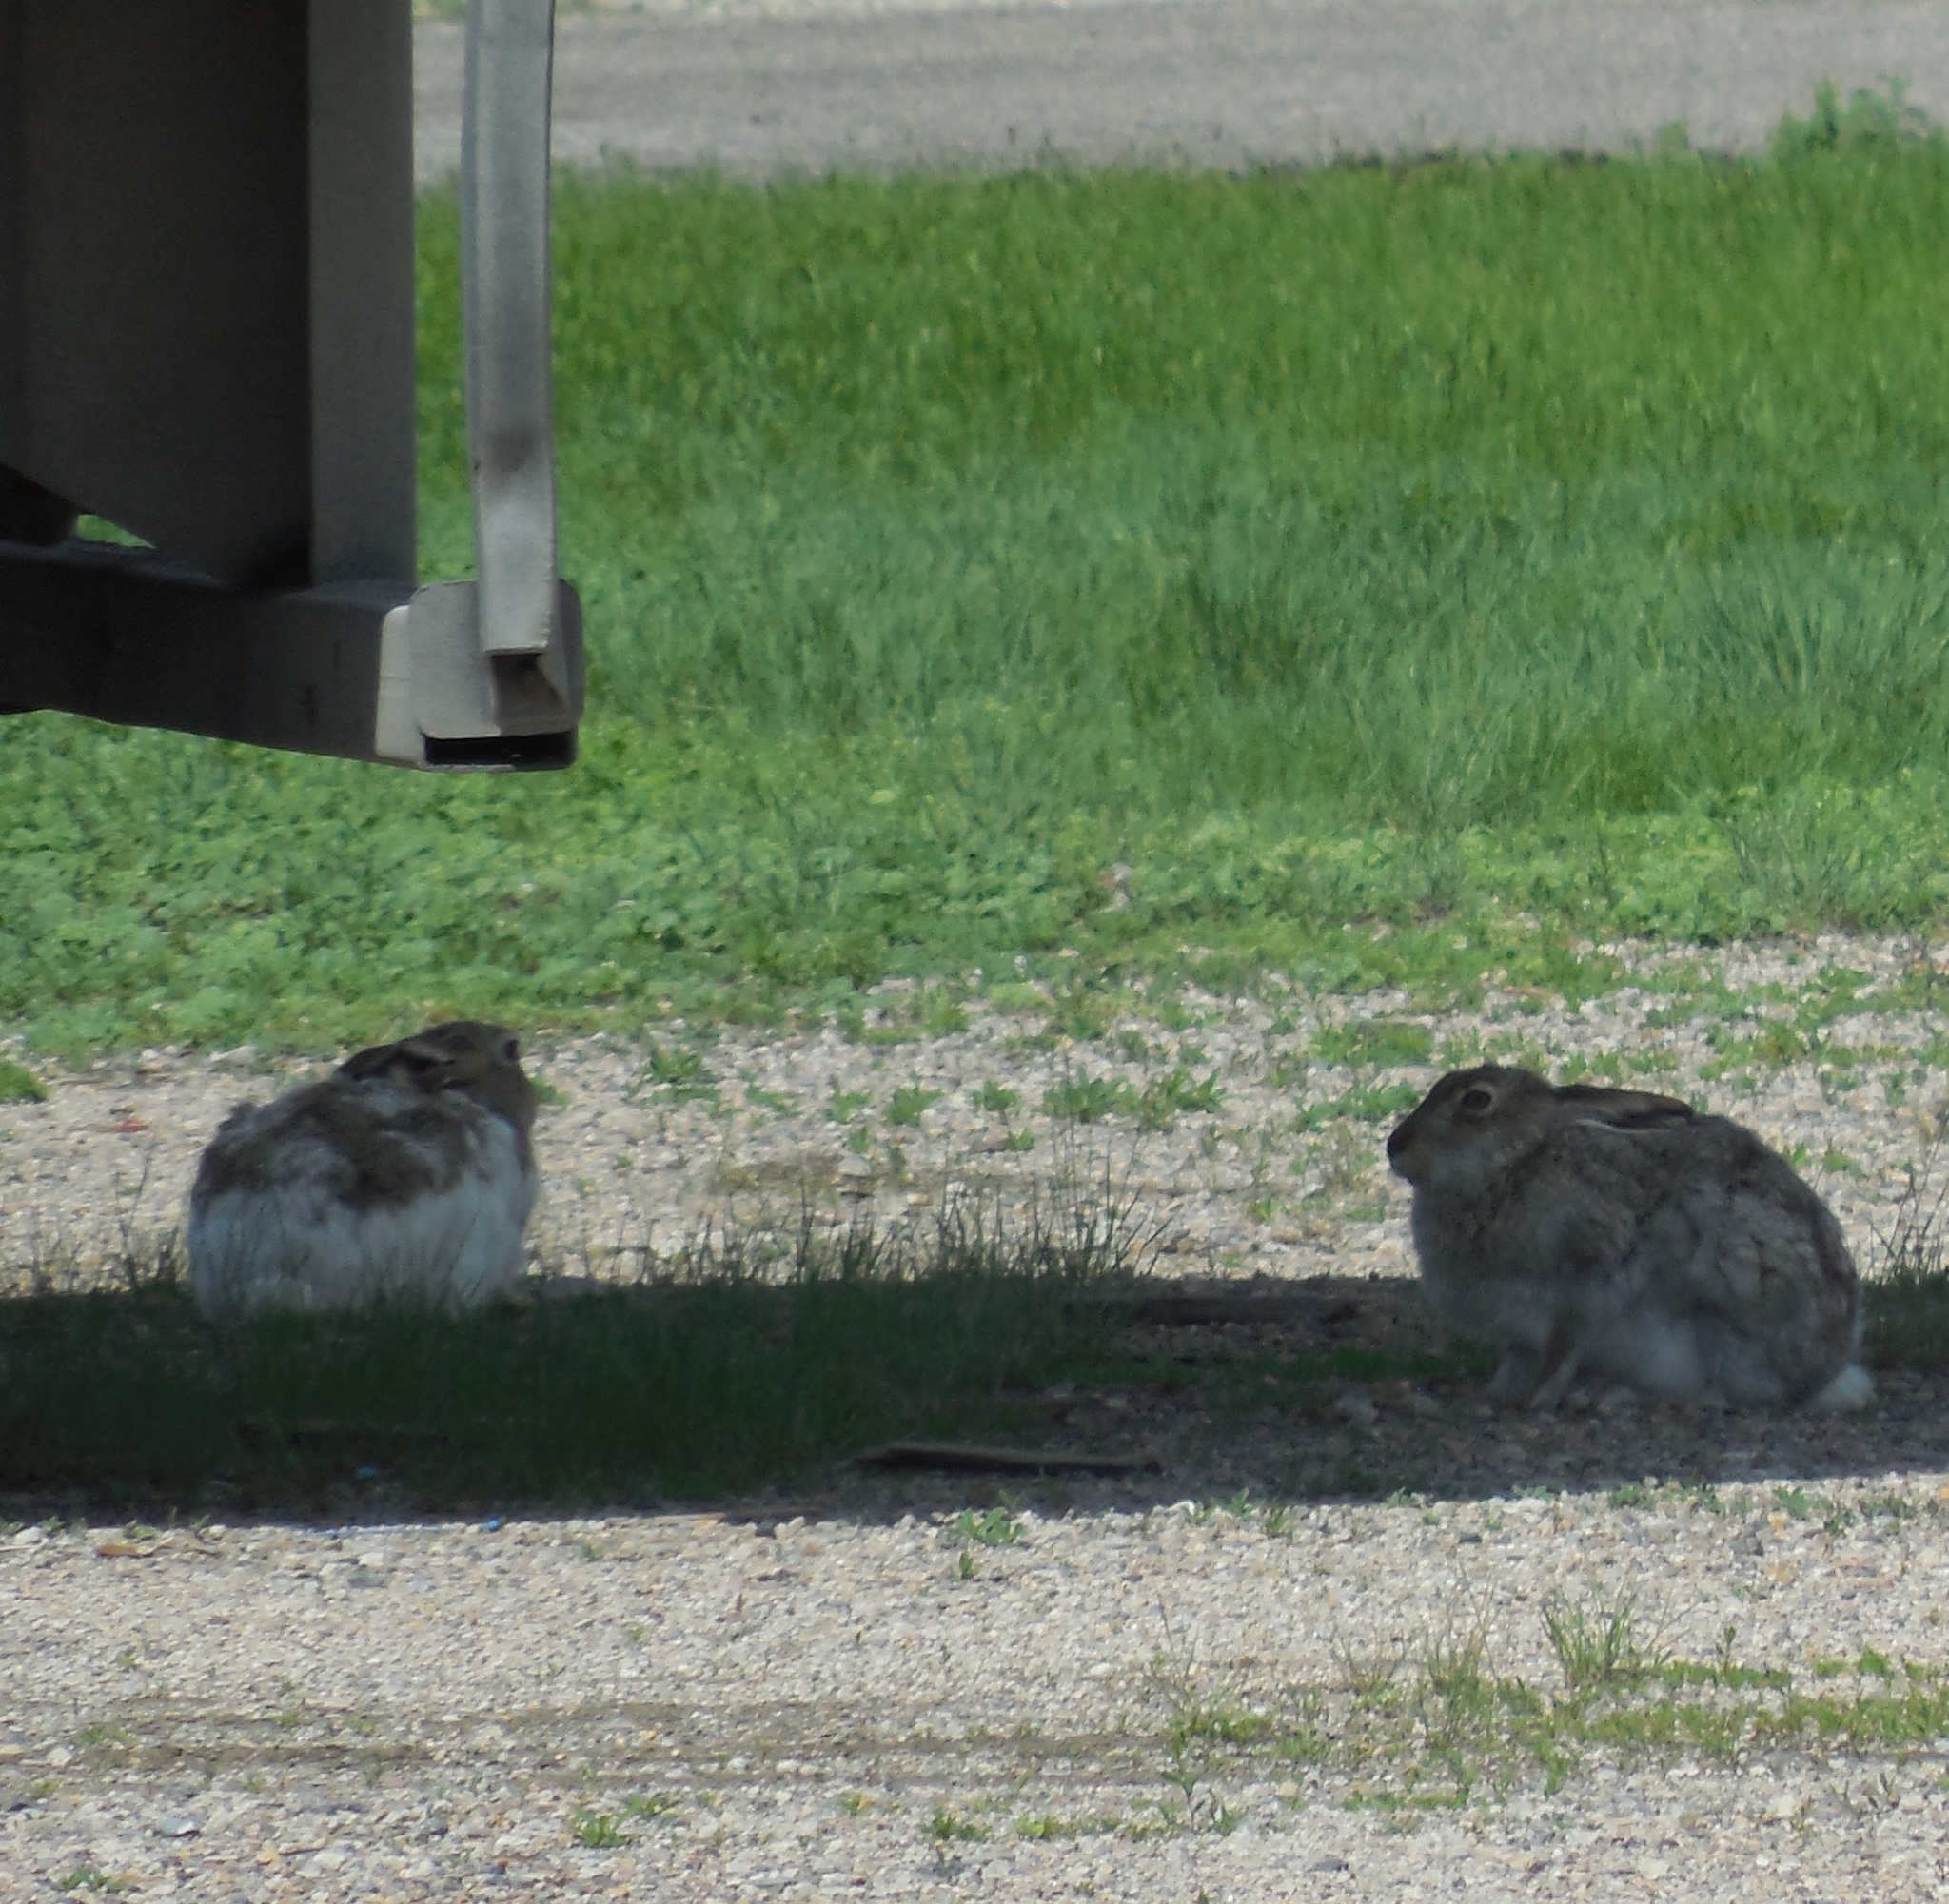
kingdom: Animalia
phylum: Chordata
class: Mammalia
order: Lagomorpha
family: Leporidae
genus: Lepus
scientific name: Lepus townsendii
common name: White-tailed jackrabbit
